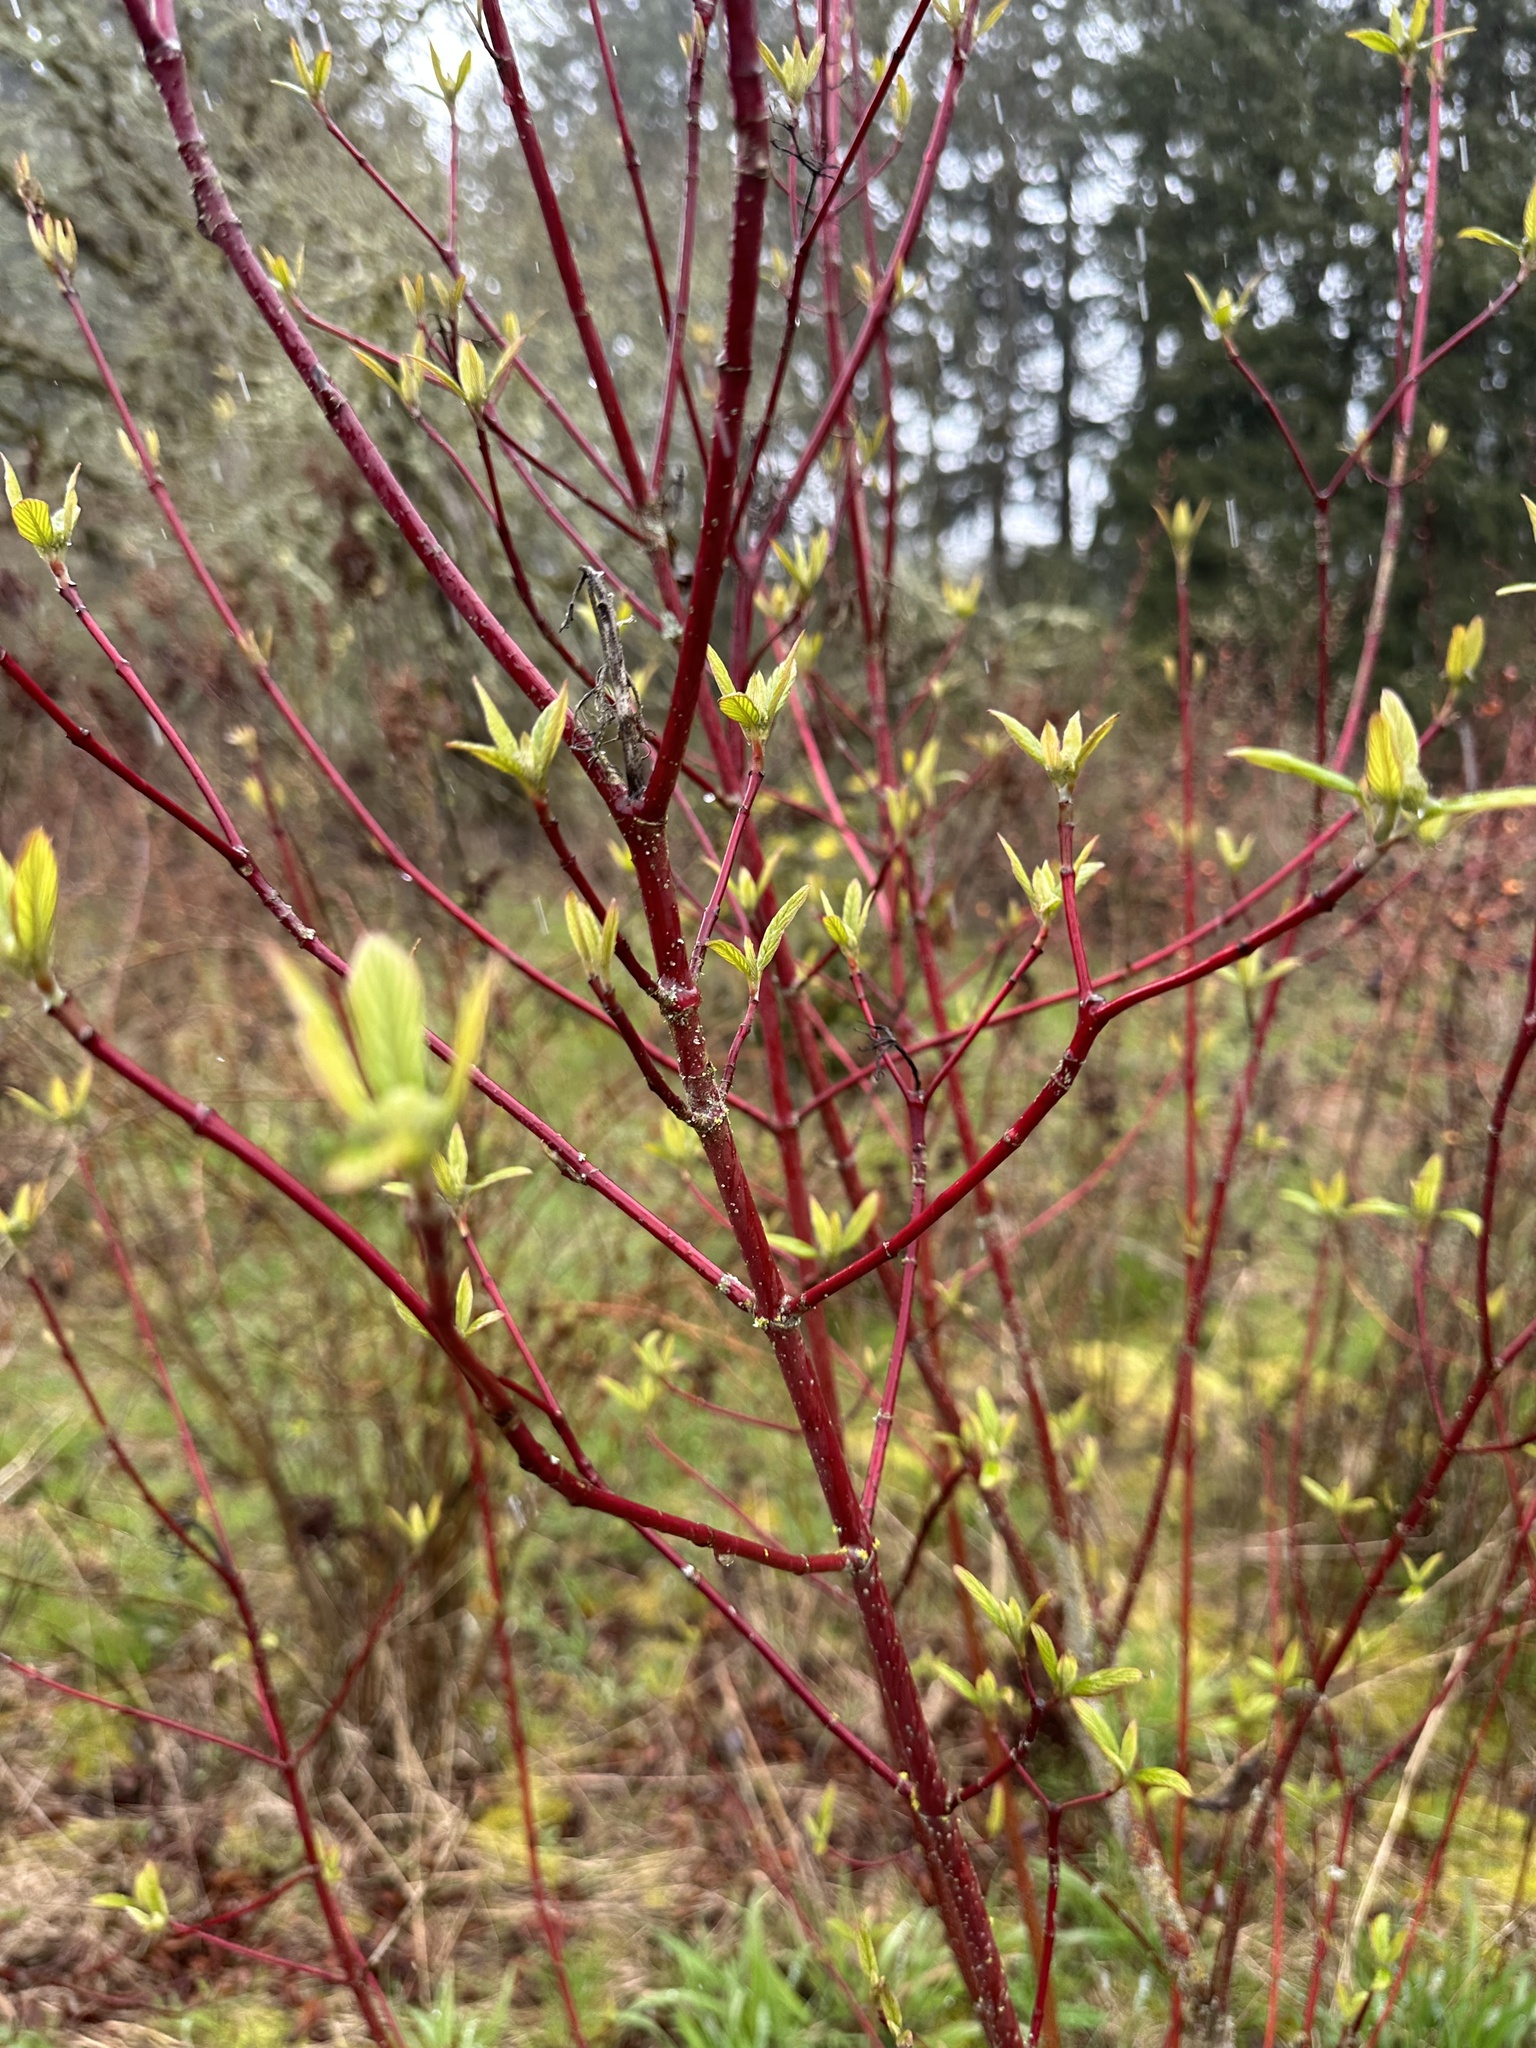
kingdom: Plantae
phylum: Tracheophyta
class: Magnoliopsida
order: Cornales
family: Cornaceae
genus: Cornus
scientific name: Cornus sericea
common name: Red-osier dogwood
